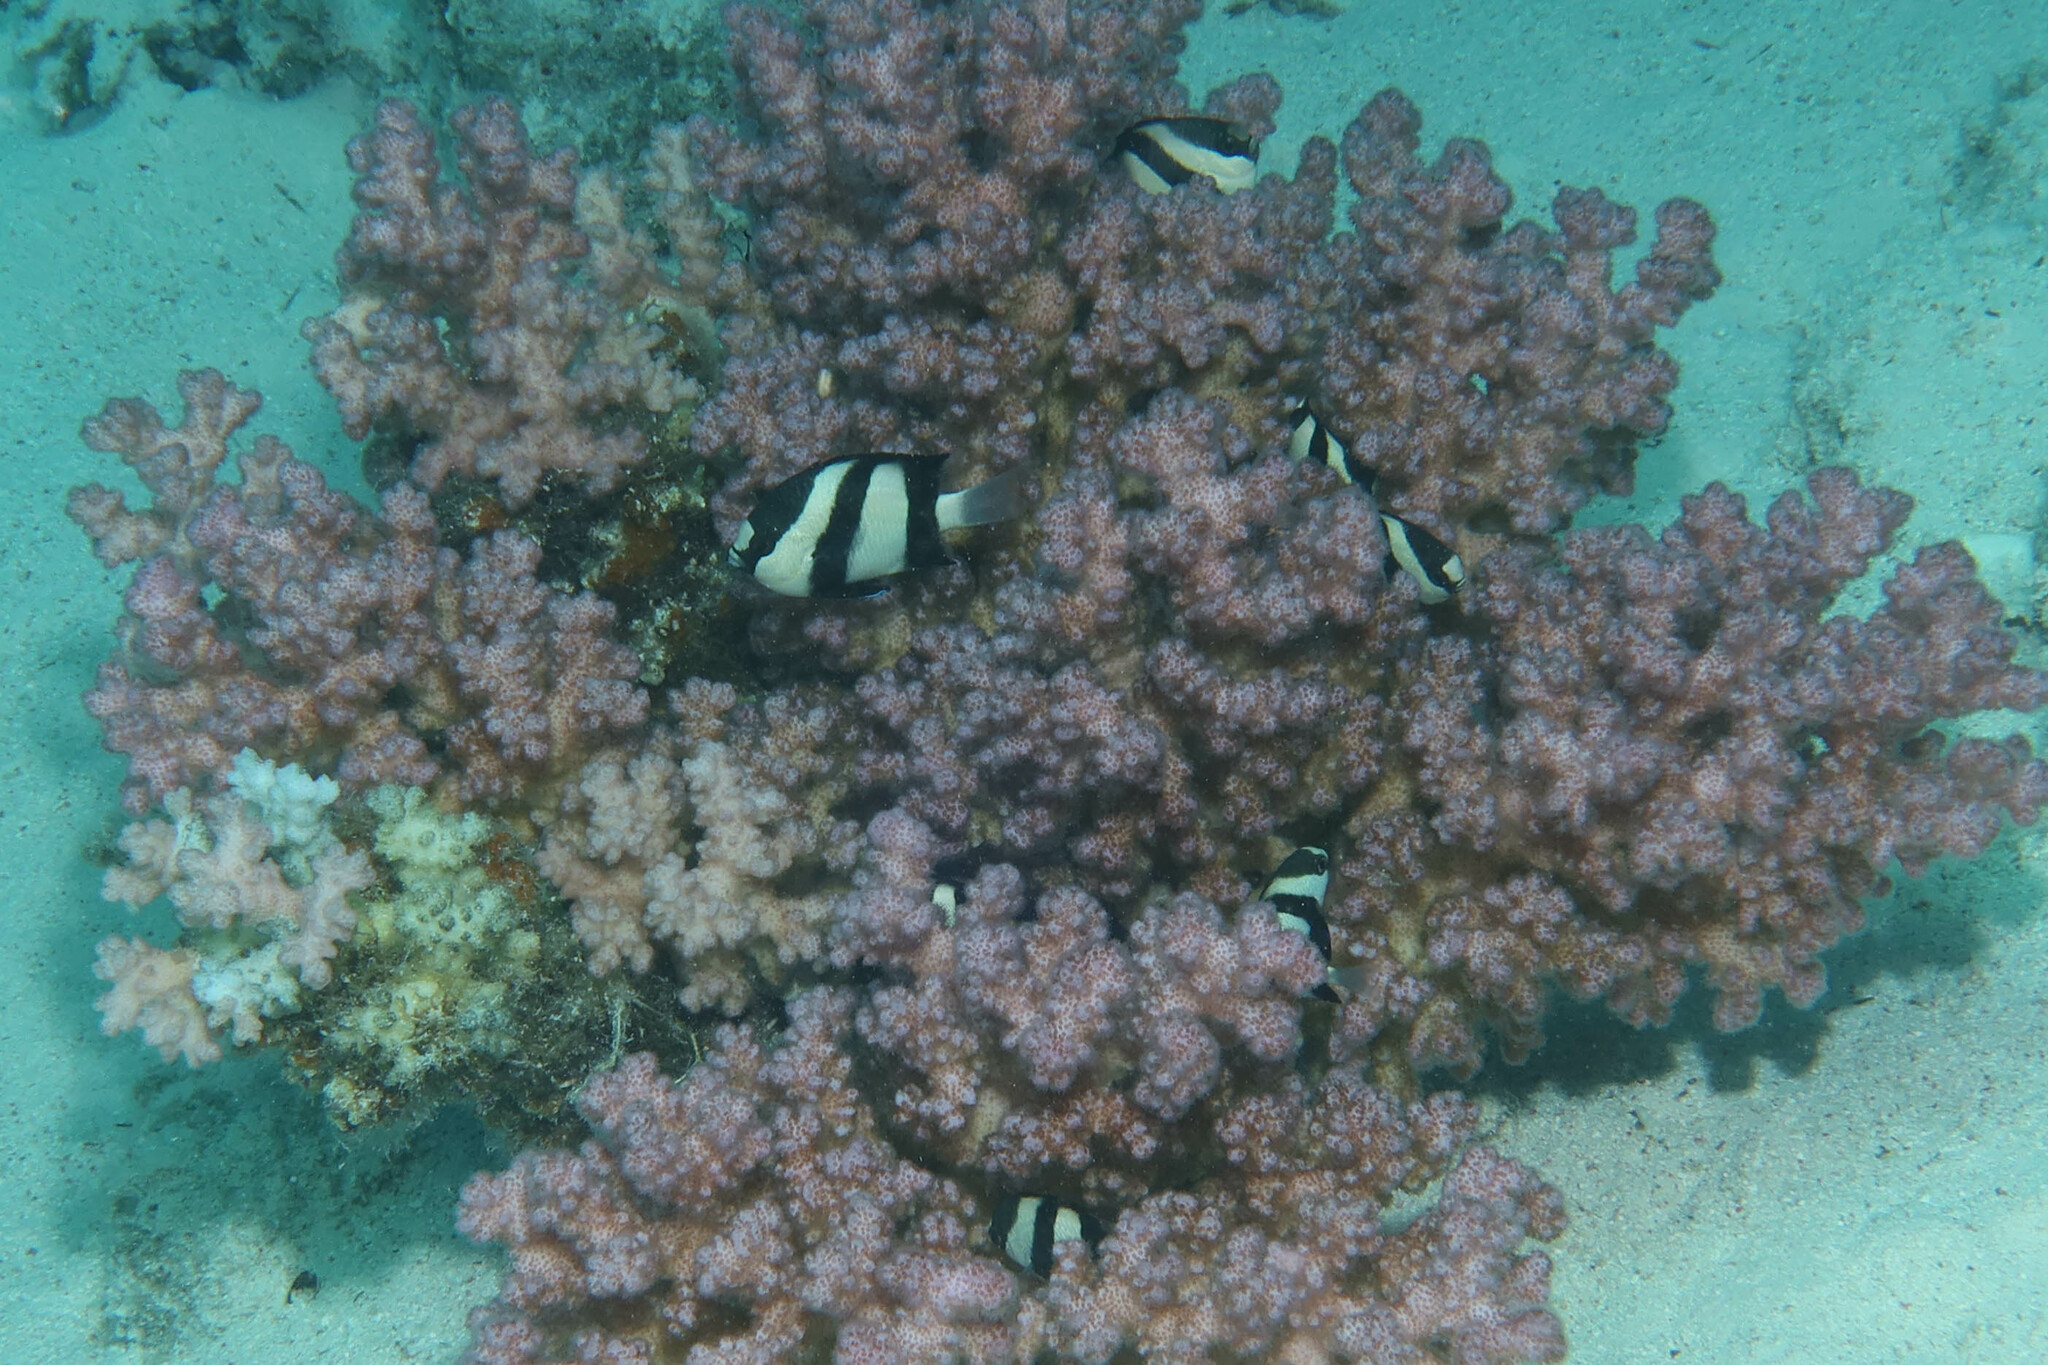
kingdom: Animalia
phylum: Chordata
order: Perciformes
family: Pomacentridae
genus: Dascyllus
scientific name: Dascyllus abudafur
